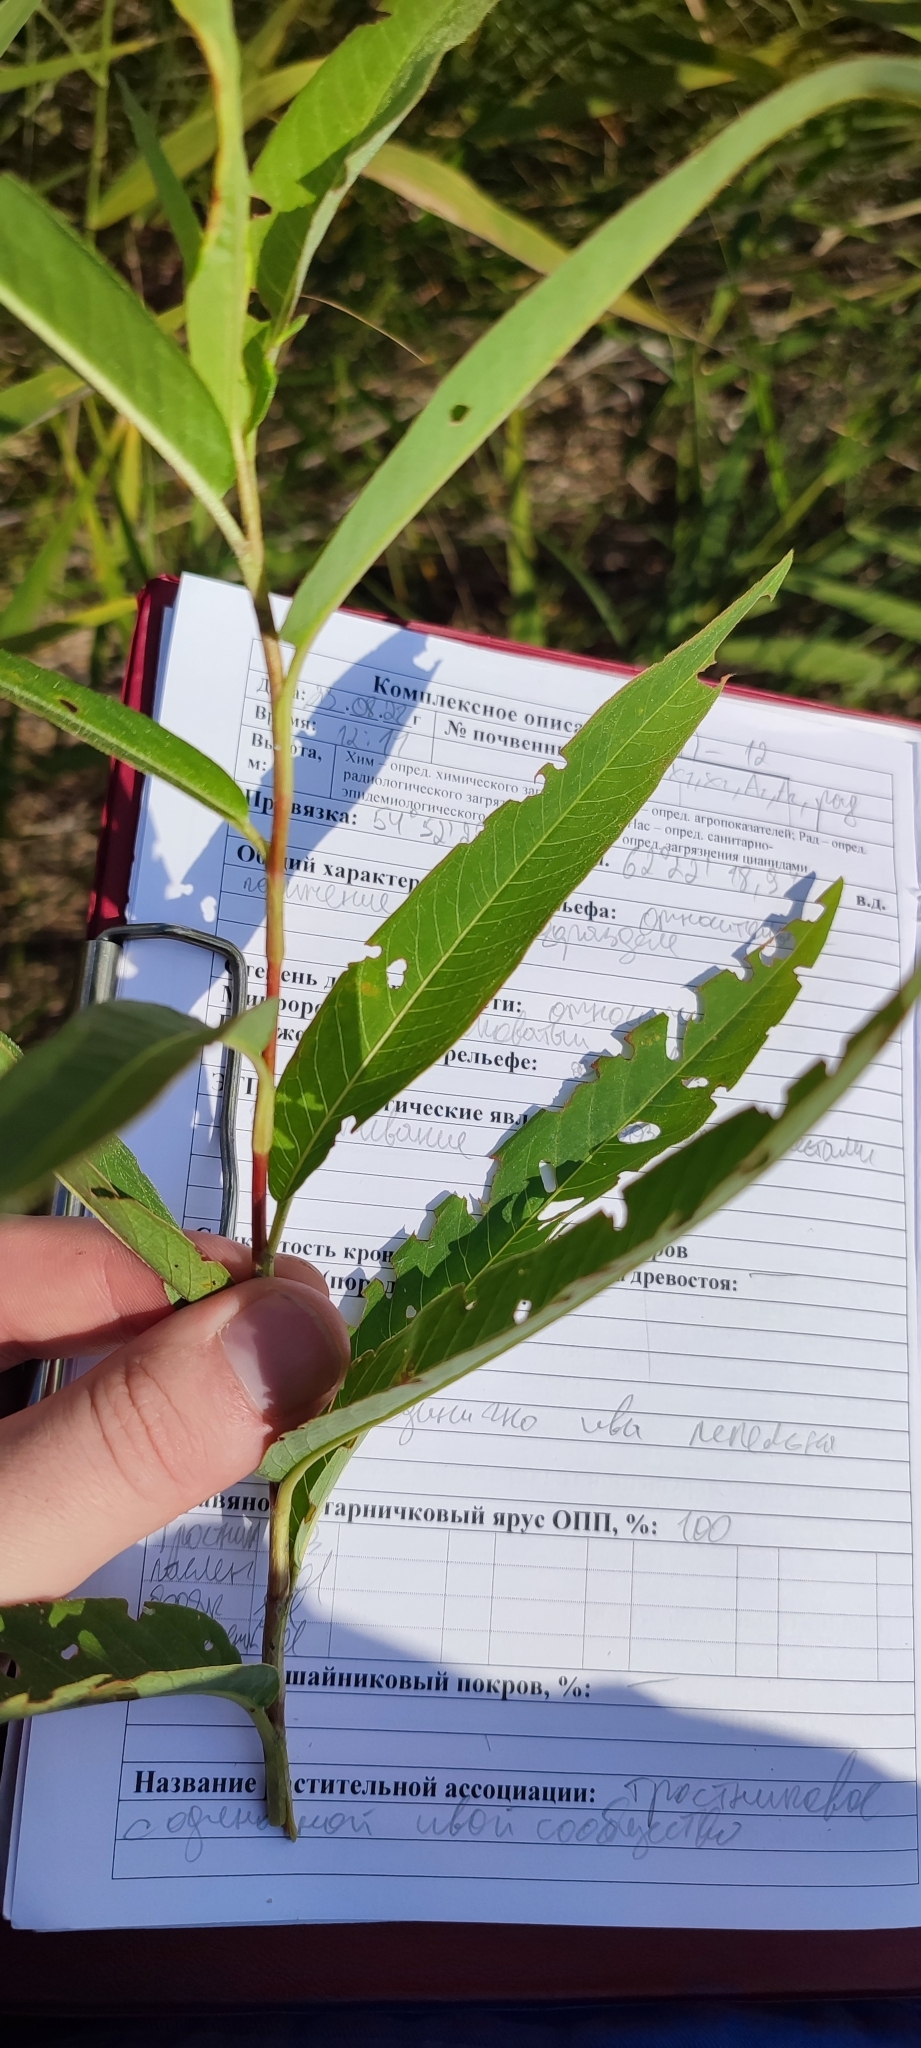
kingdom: Plantae
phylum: Tracheophyta
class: Magnoliopsida
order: Caryophyllales
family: Polygonaceae
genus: Persicaria
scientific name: Persicaria amphibia
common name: Amphibious bistort
